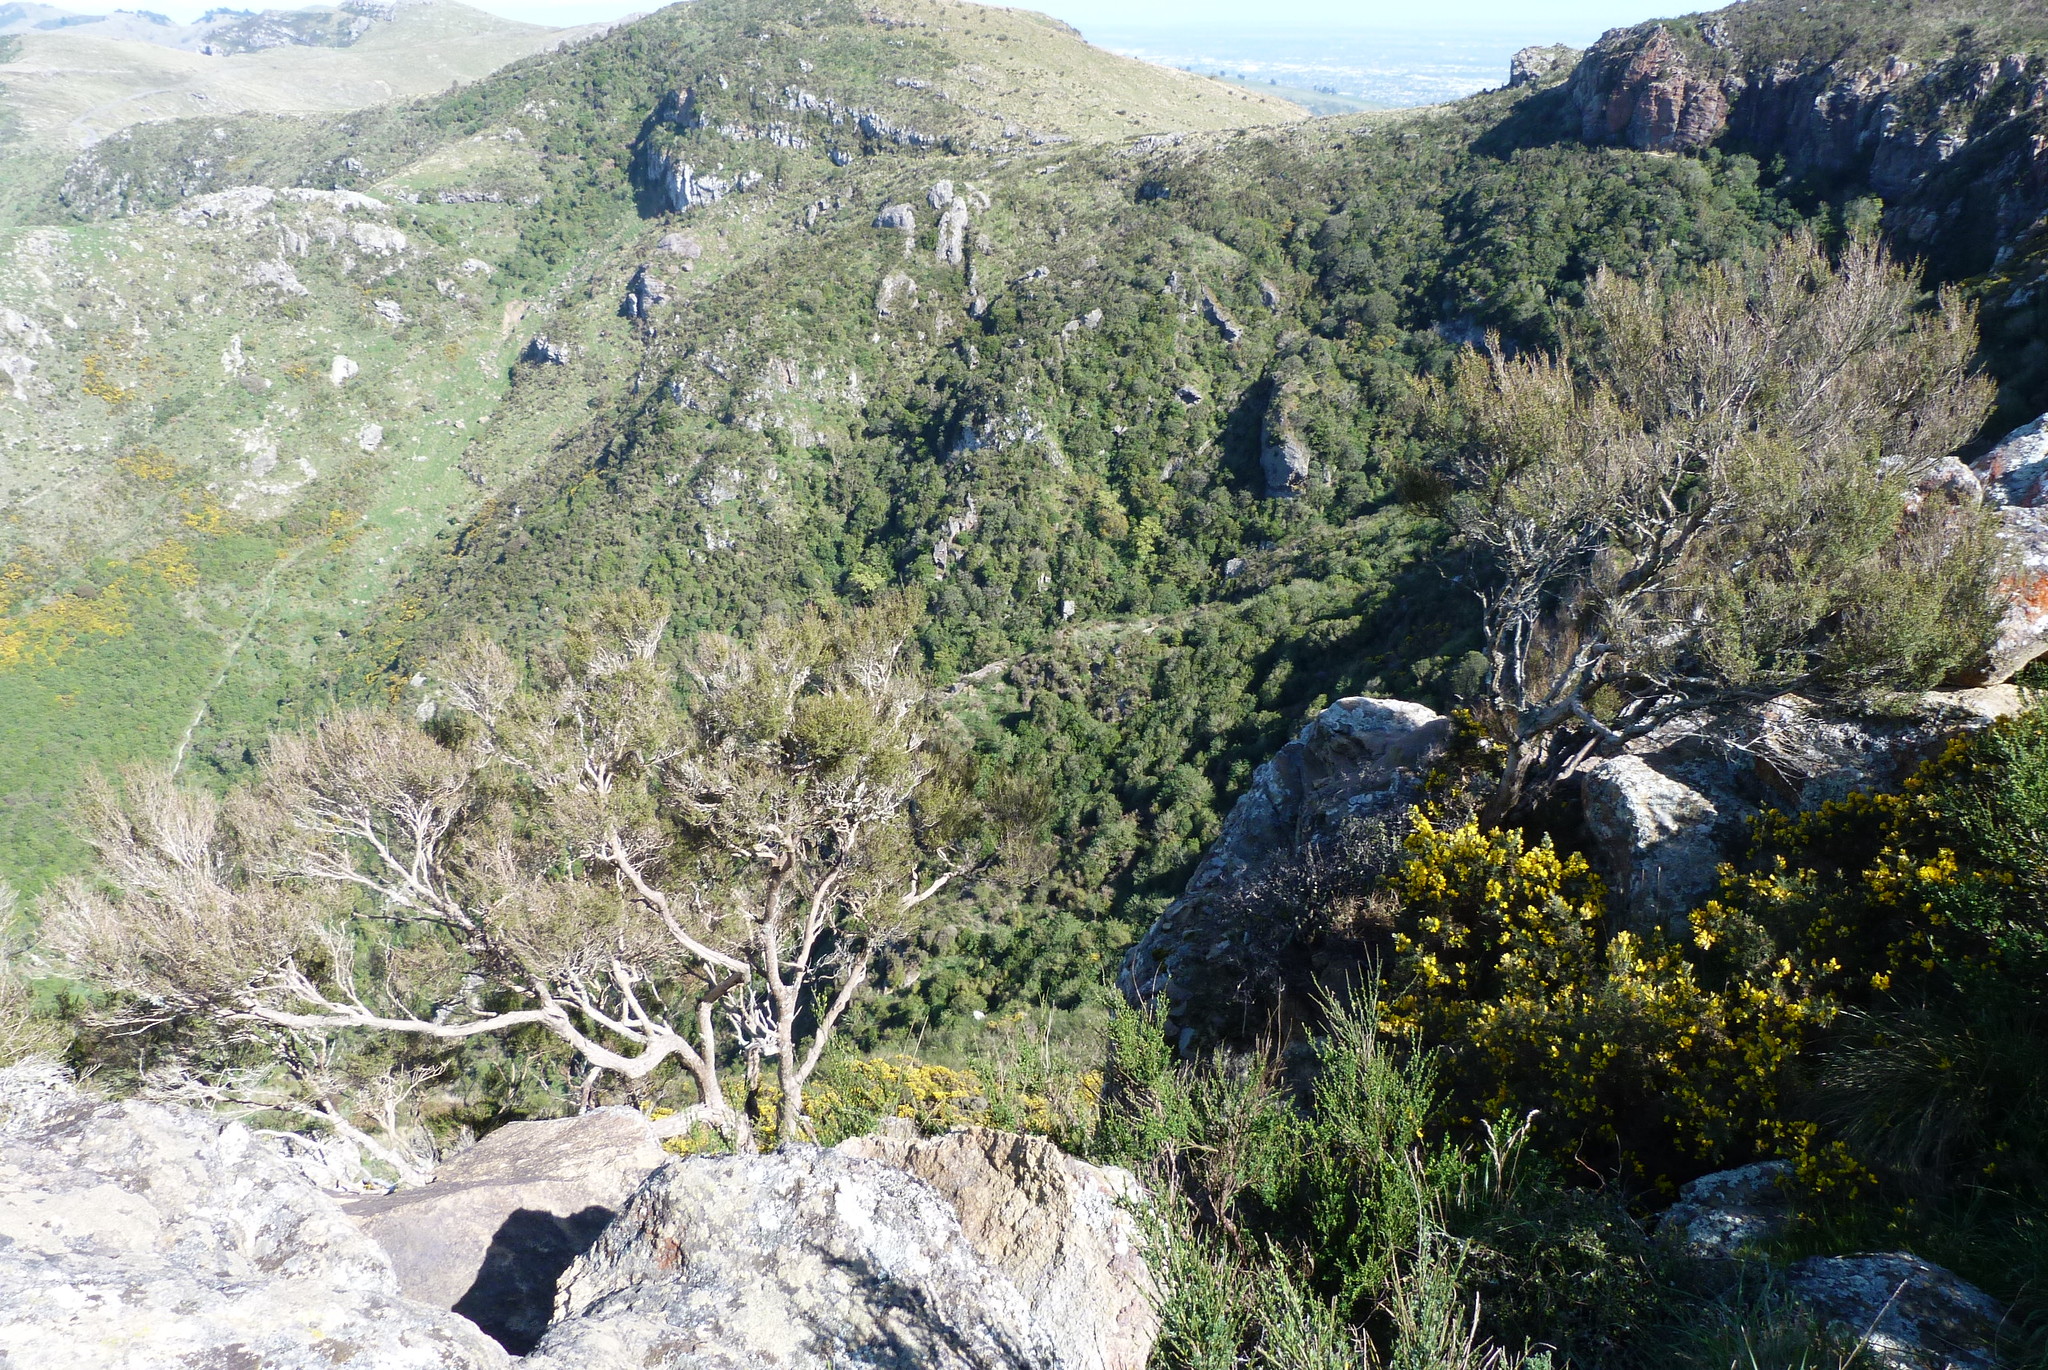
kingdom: Plantae
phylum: Tracheophyta
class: Magnoliopsida
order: Myrtales
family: Myrtaceae
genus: Kunzea
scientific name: Kunzea robusta
